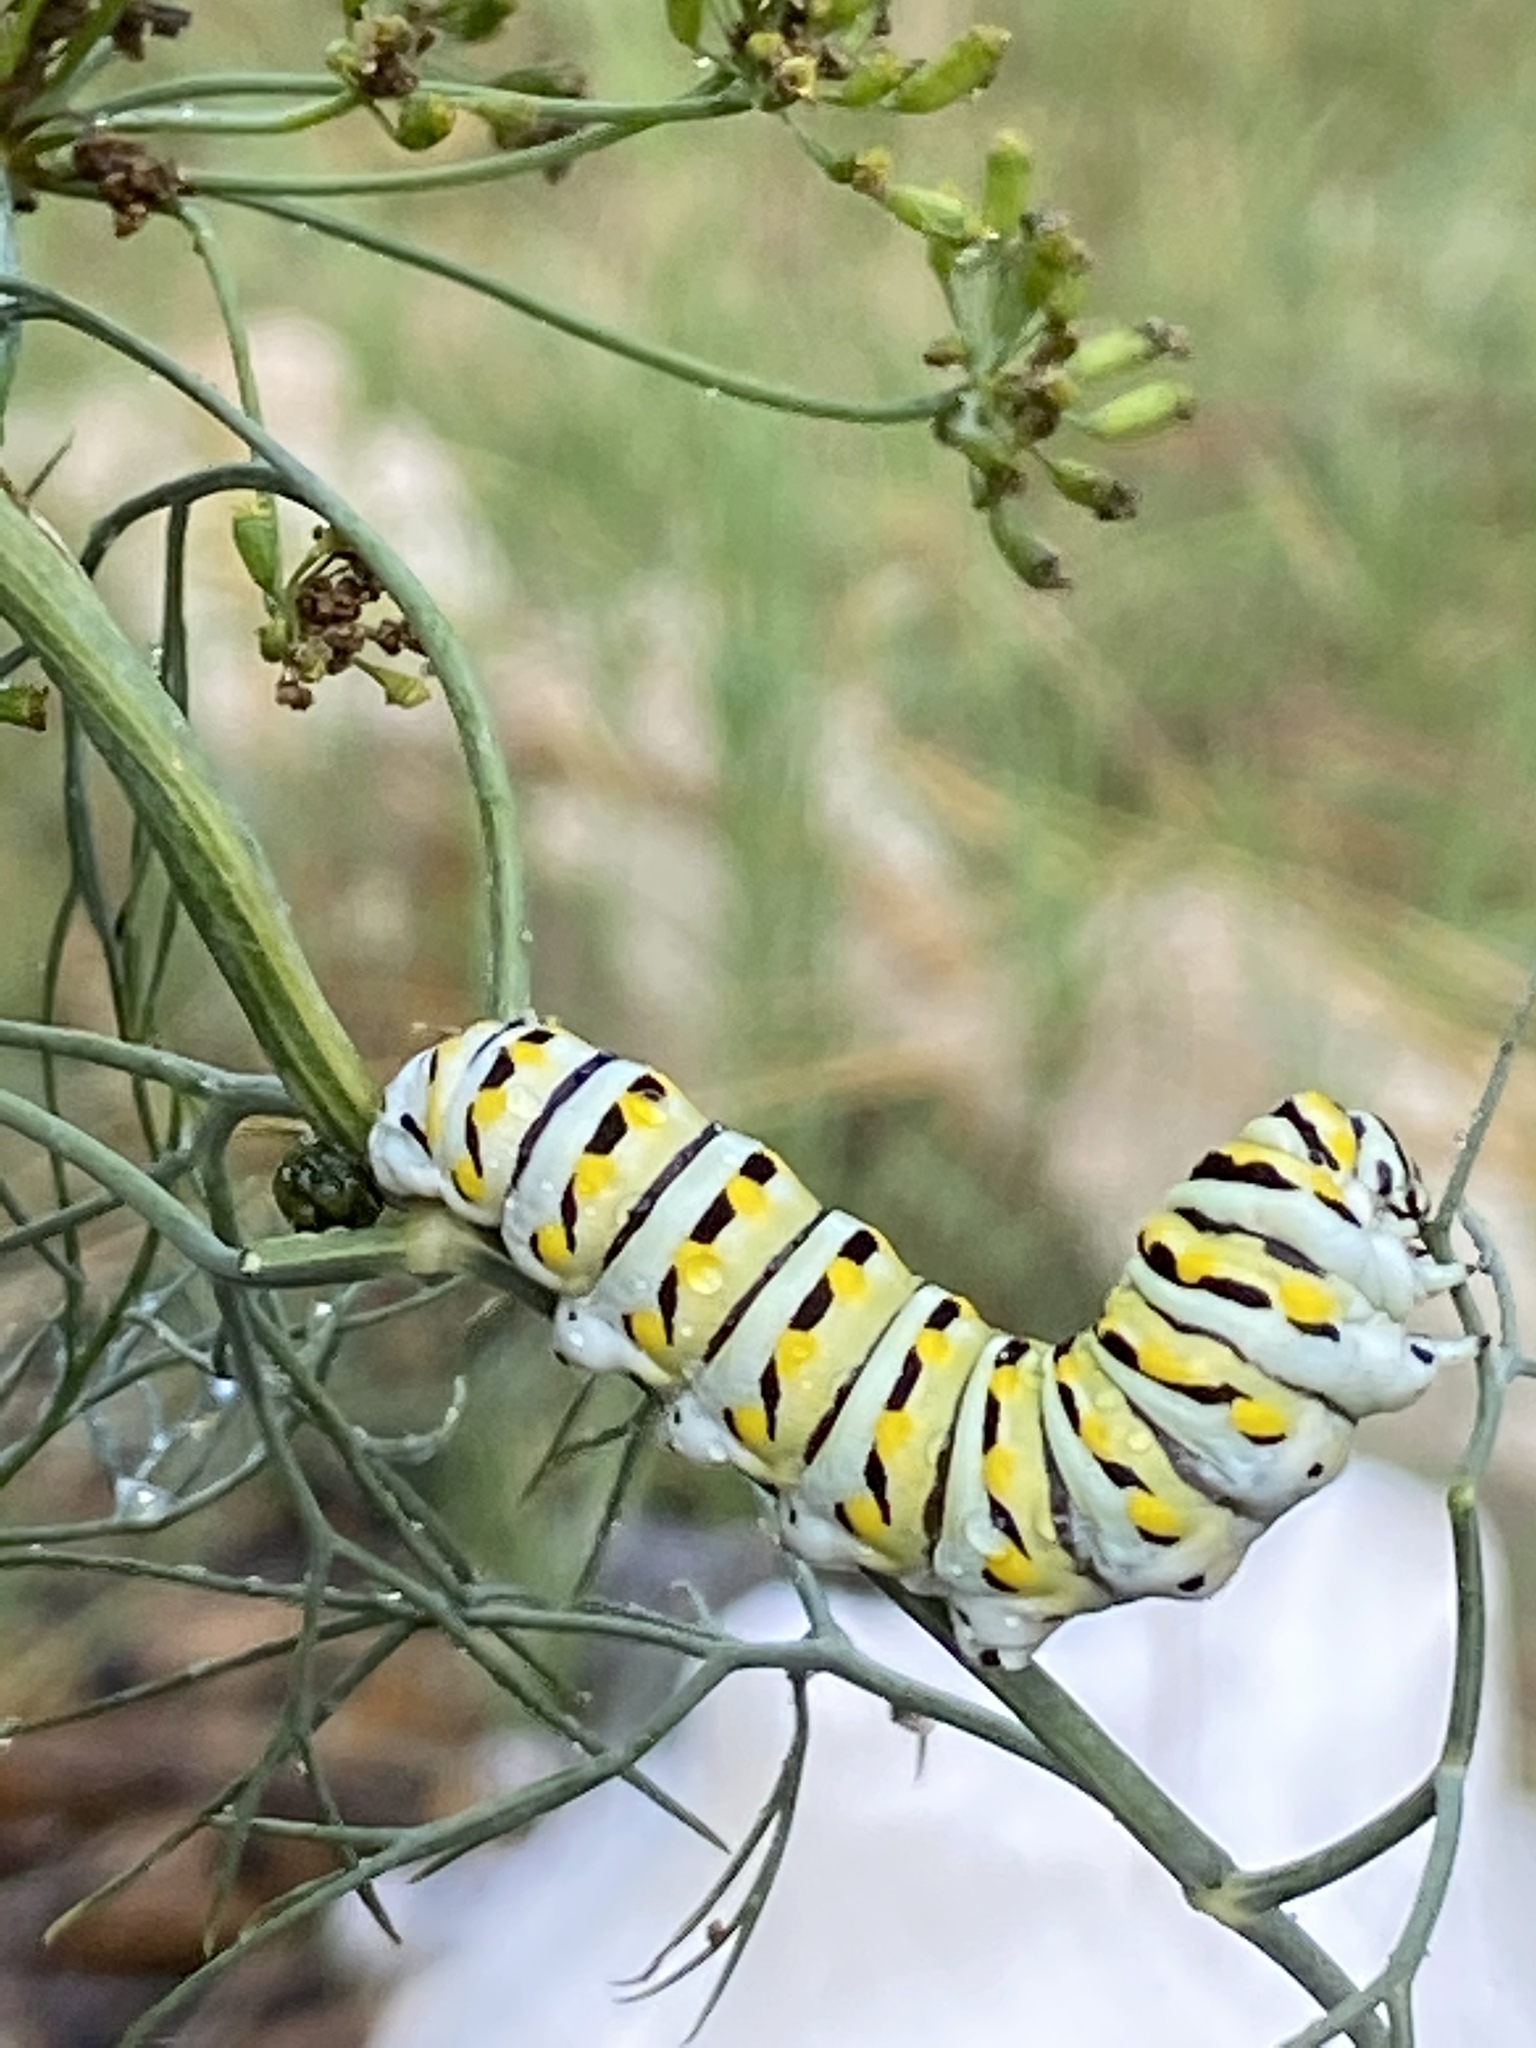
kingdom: Animalia
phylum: Arthropoda
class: Insecta
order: Lepidoptera
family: Papilionidae
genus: Papilio
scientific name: Papilio polyxenes
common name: Black swallowtail
